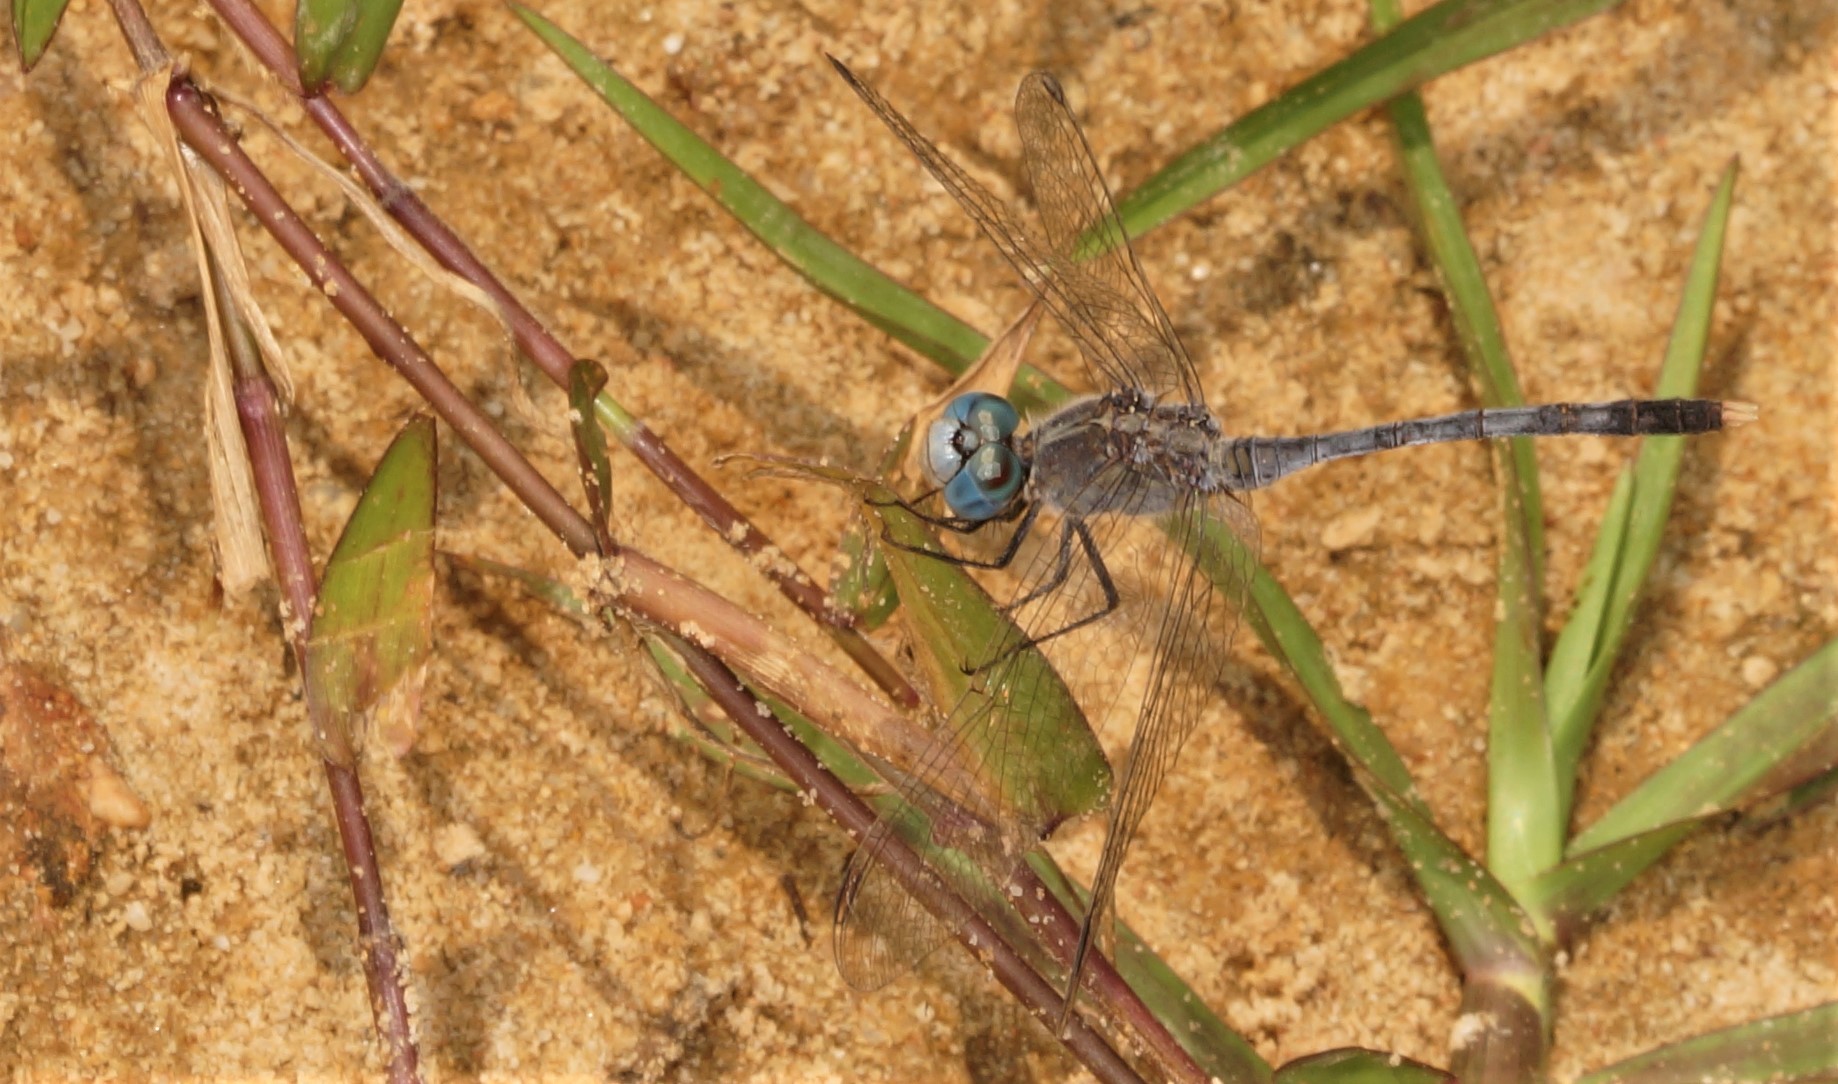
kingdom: Animalia
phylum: Arthropoda
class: Insecta
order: Odonata
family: Libellulidae
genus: Diplacodes
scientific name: Diplacodes trivialis
